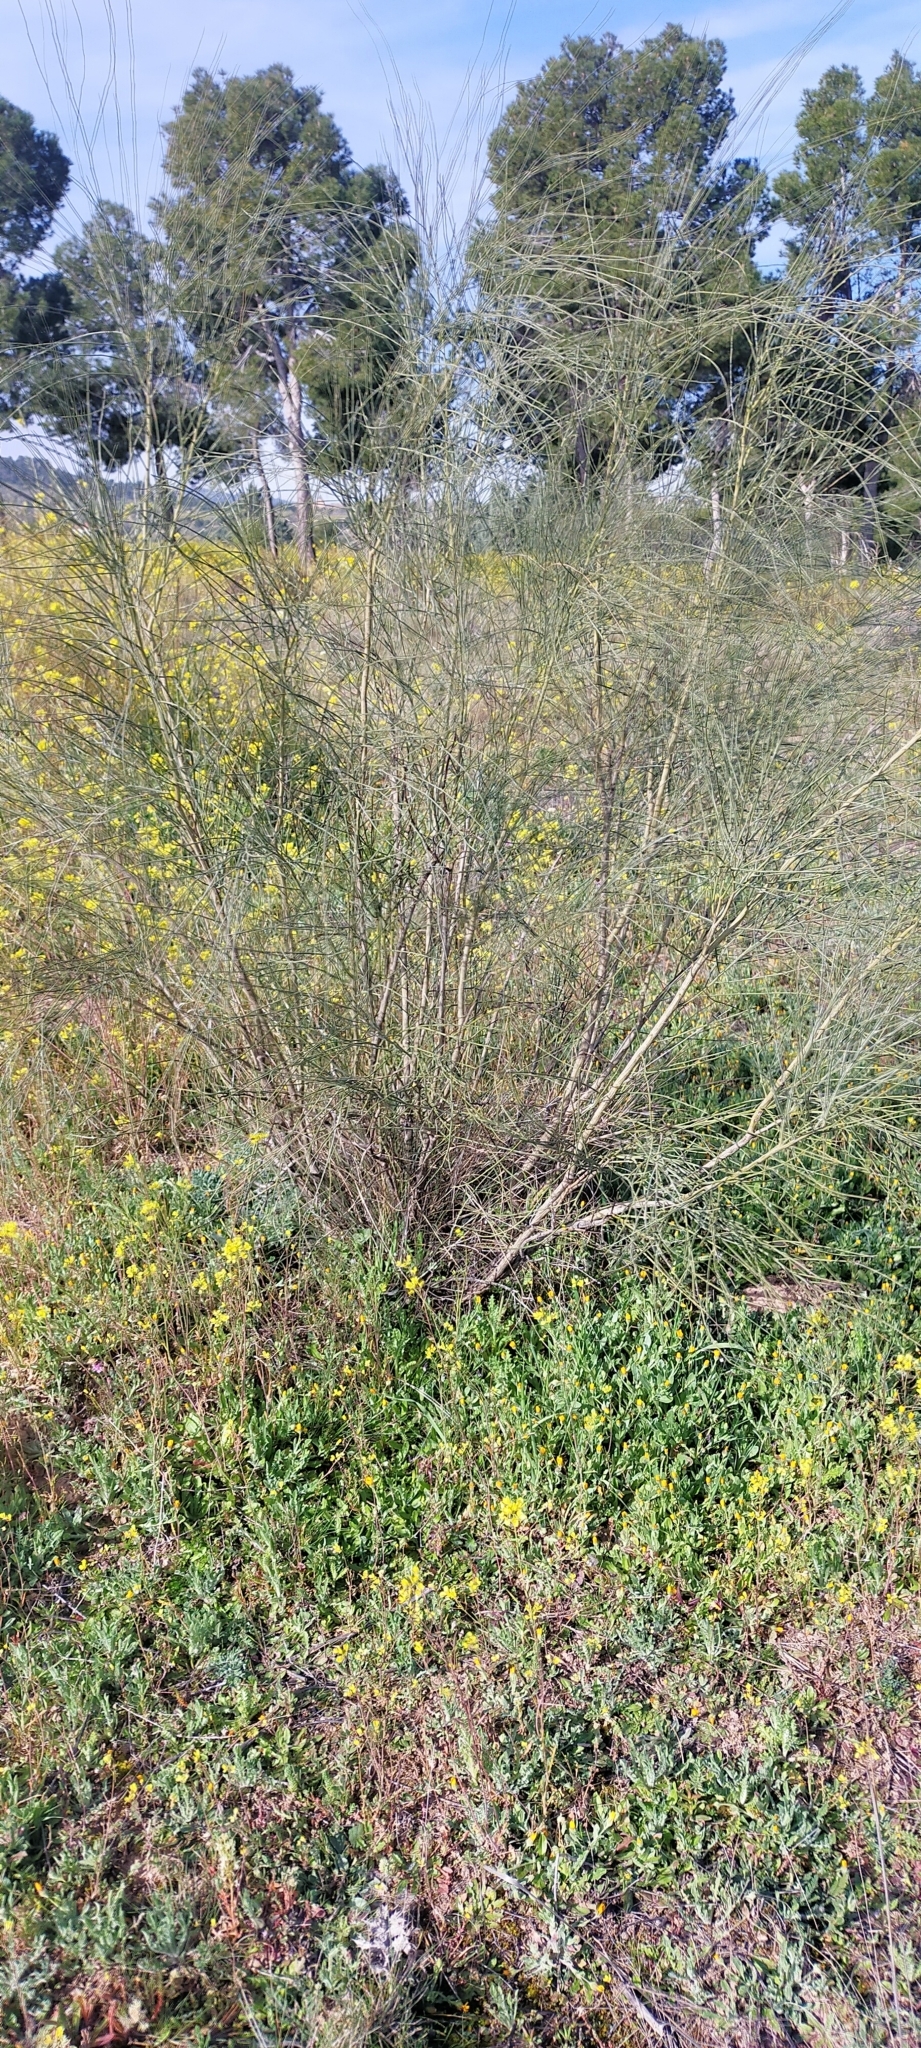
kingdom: Plantae
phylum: Tracheophyta
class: Magnoliopsida
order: Fabales
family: Fabaceae
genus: Retama
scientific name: Retama sphaerocarpa
